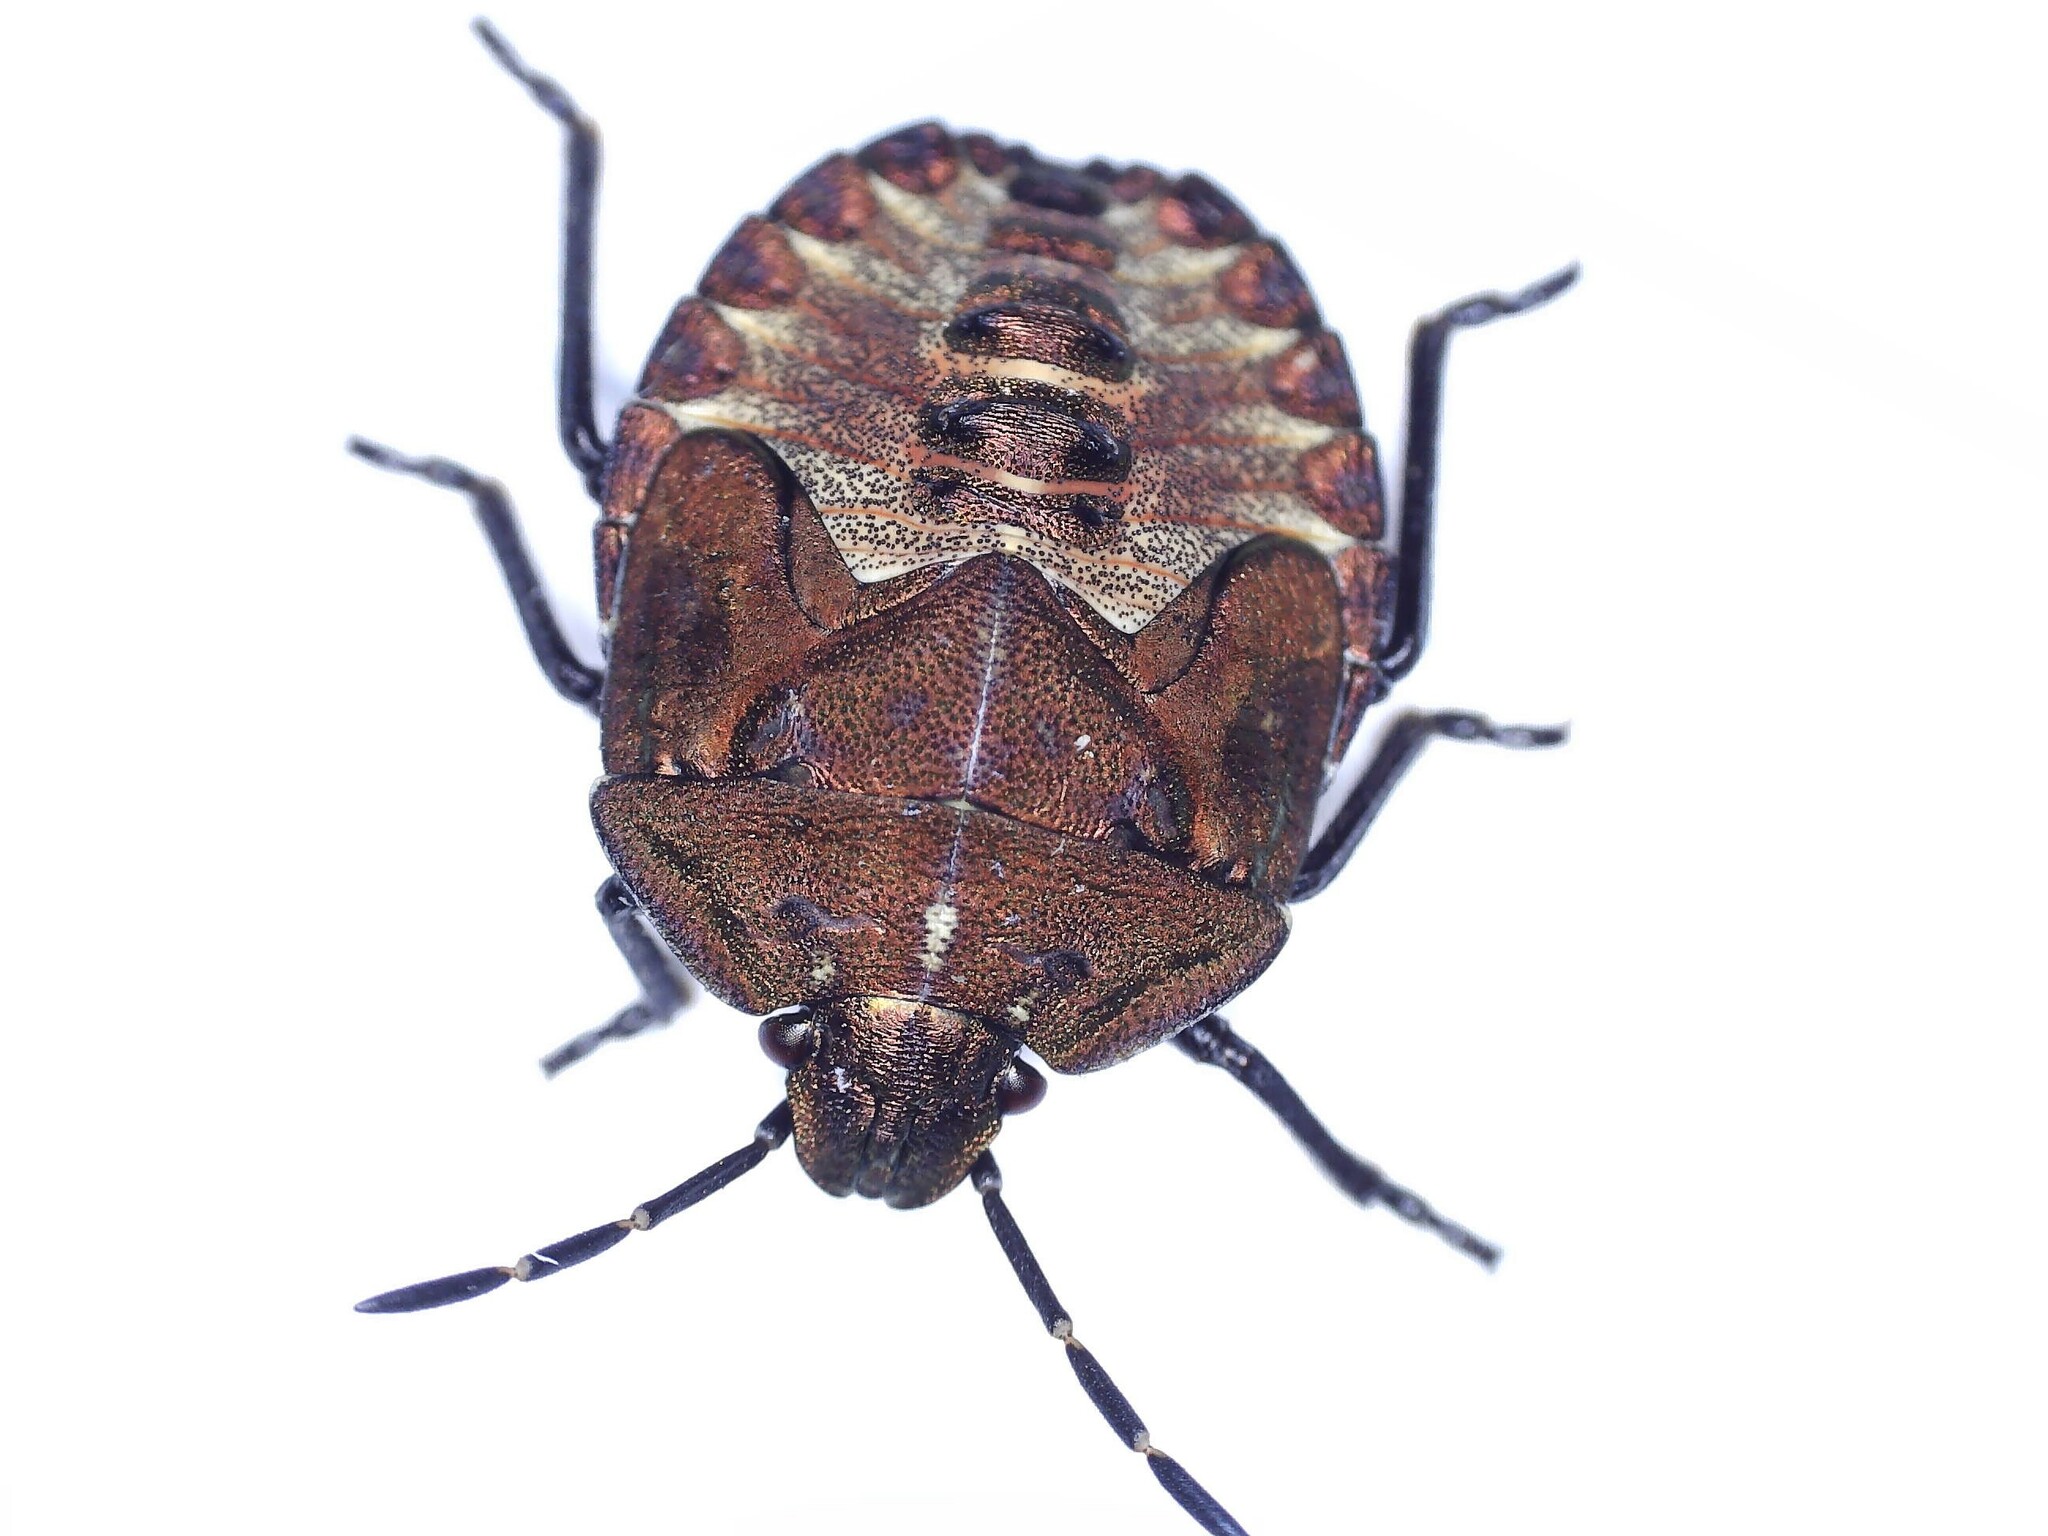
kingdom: Animalia
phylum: Arthropoda
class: Insecta
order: Hemiptera
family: Pentatomidae
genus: Carpocoris
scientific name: Carpocoris purpureipennis
